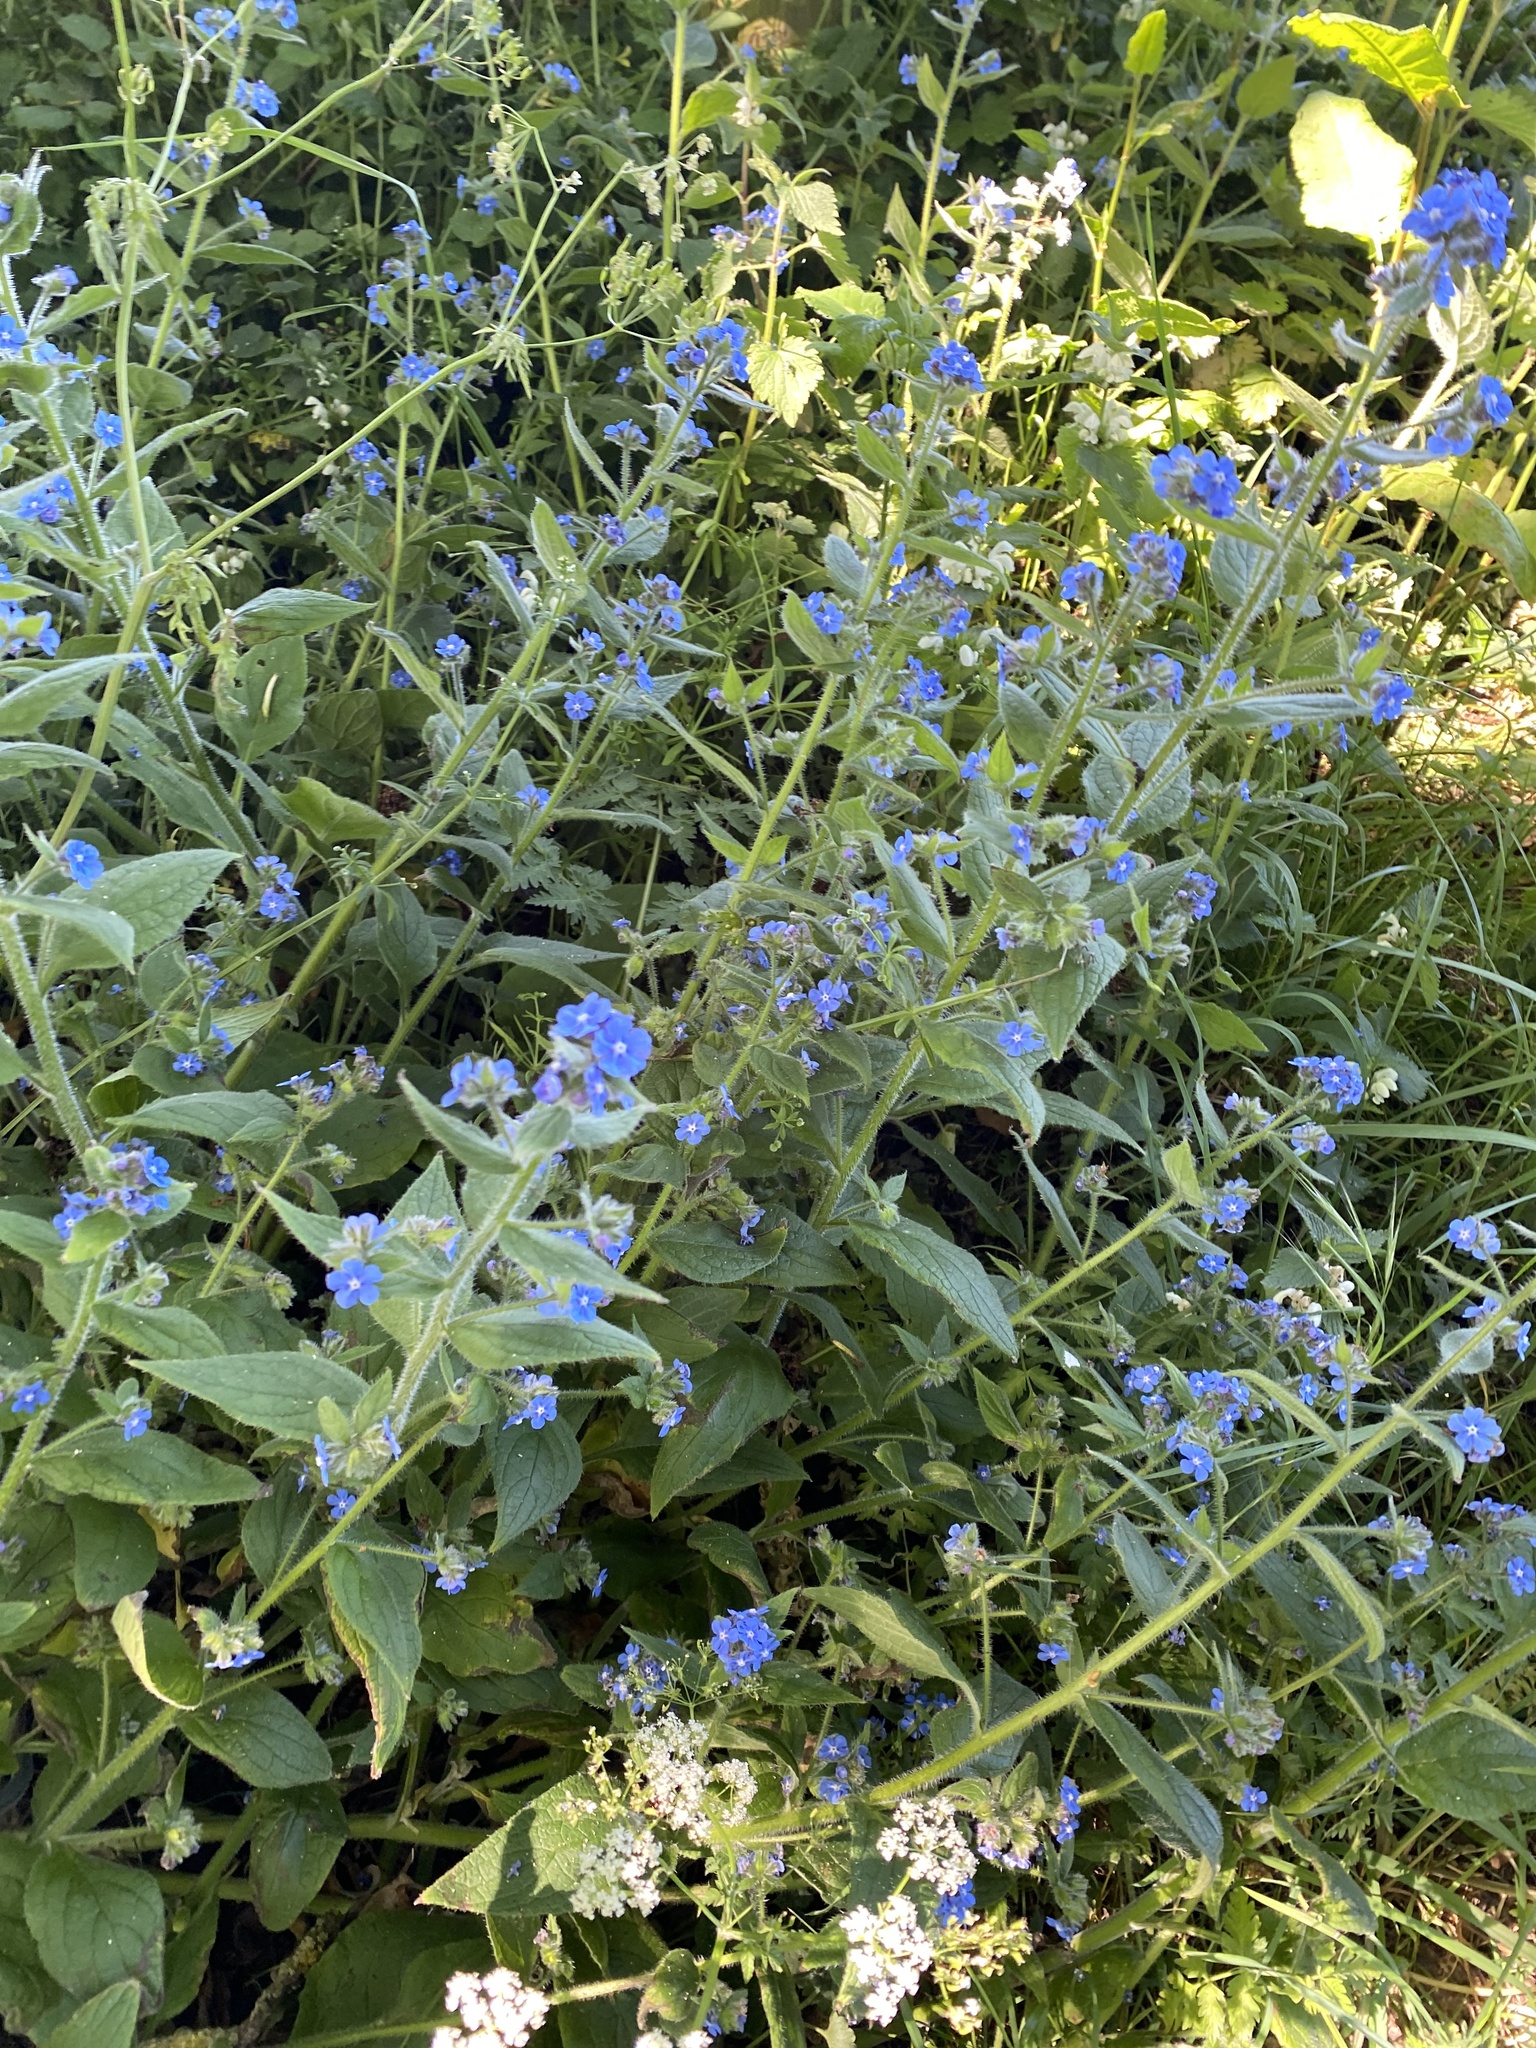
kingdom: Plantae
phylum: Tracheophyta
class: Magnoliopsida
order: Boraginales
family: Boraginaceae
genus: Pentaglottis
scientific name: Pentaglottis sempervirens
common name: Green alkanet
